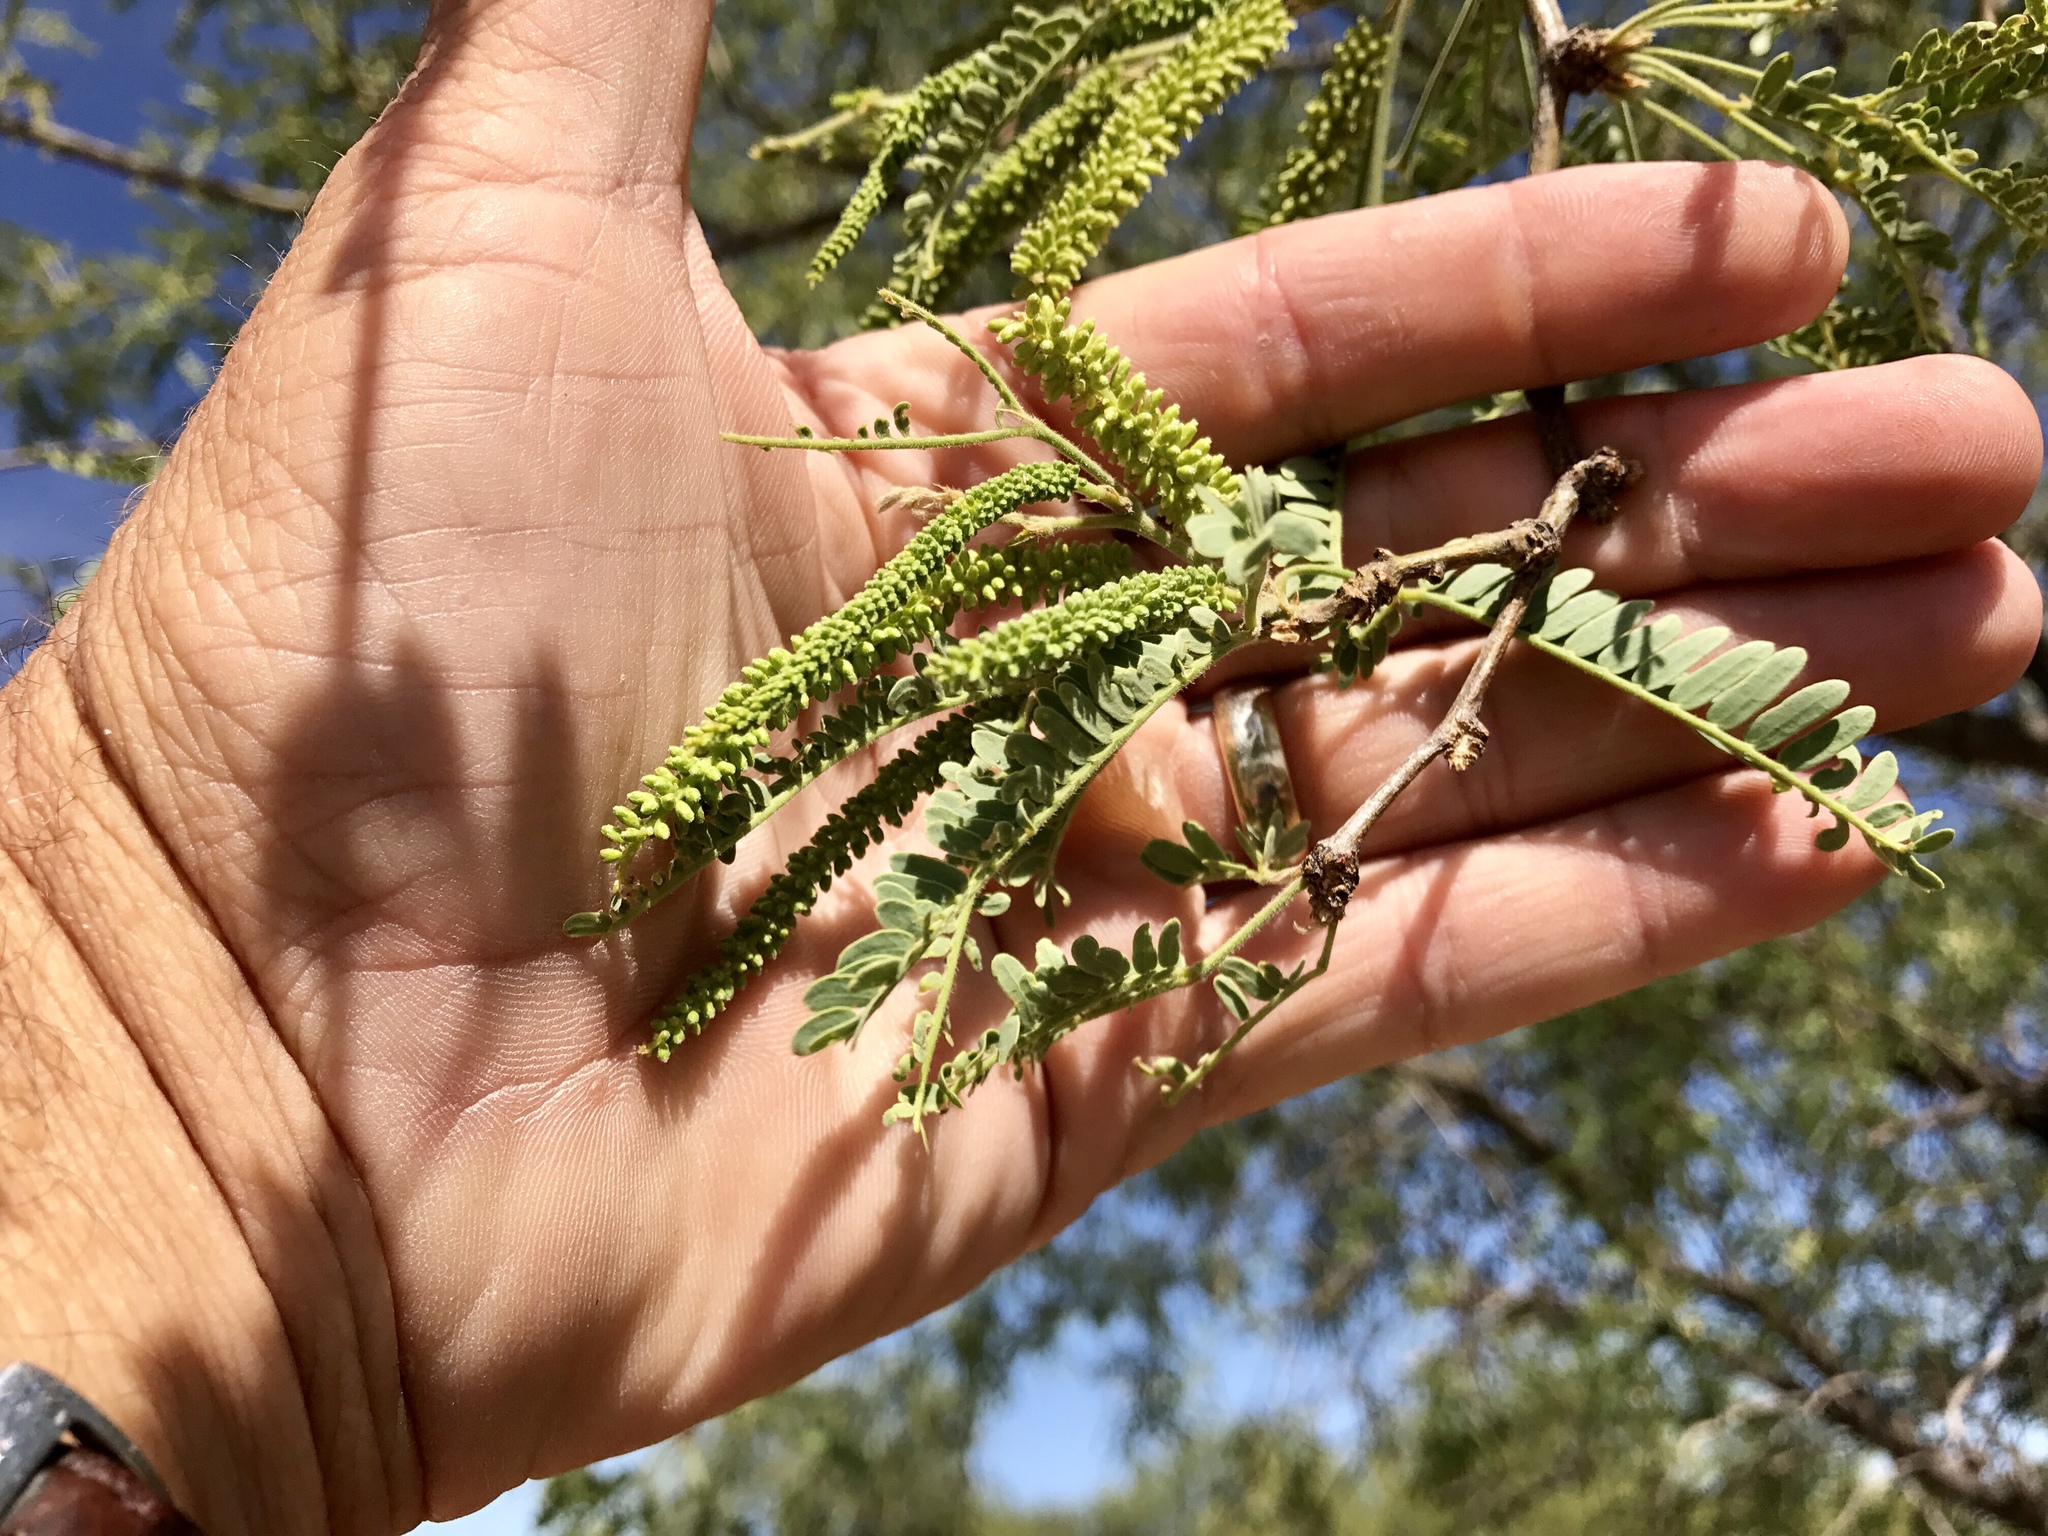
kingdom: Plantae
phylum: Tracheophyta
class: Magnoliopsida
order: Fabales
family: Fabaceae
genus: Prosopis
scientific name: Prosopis velutina
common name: Velvet mesquite
